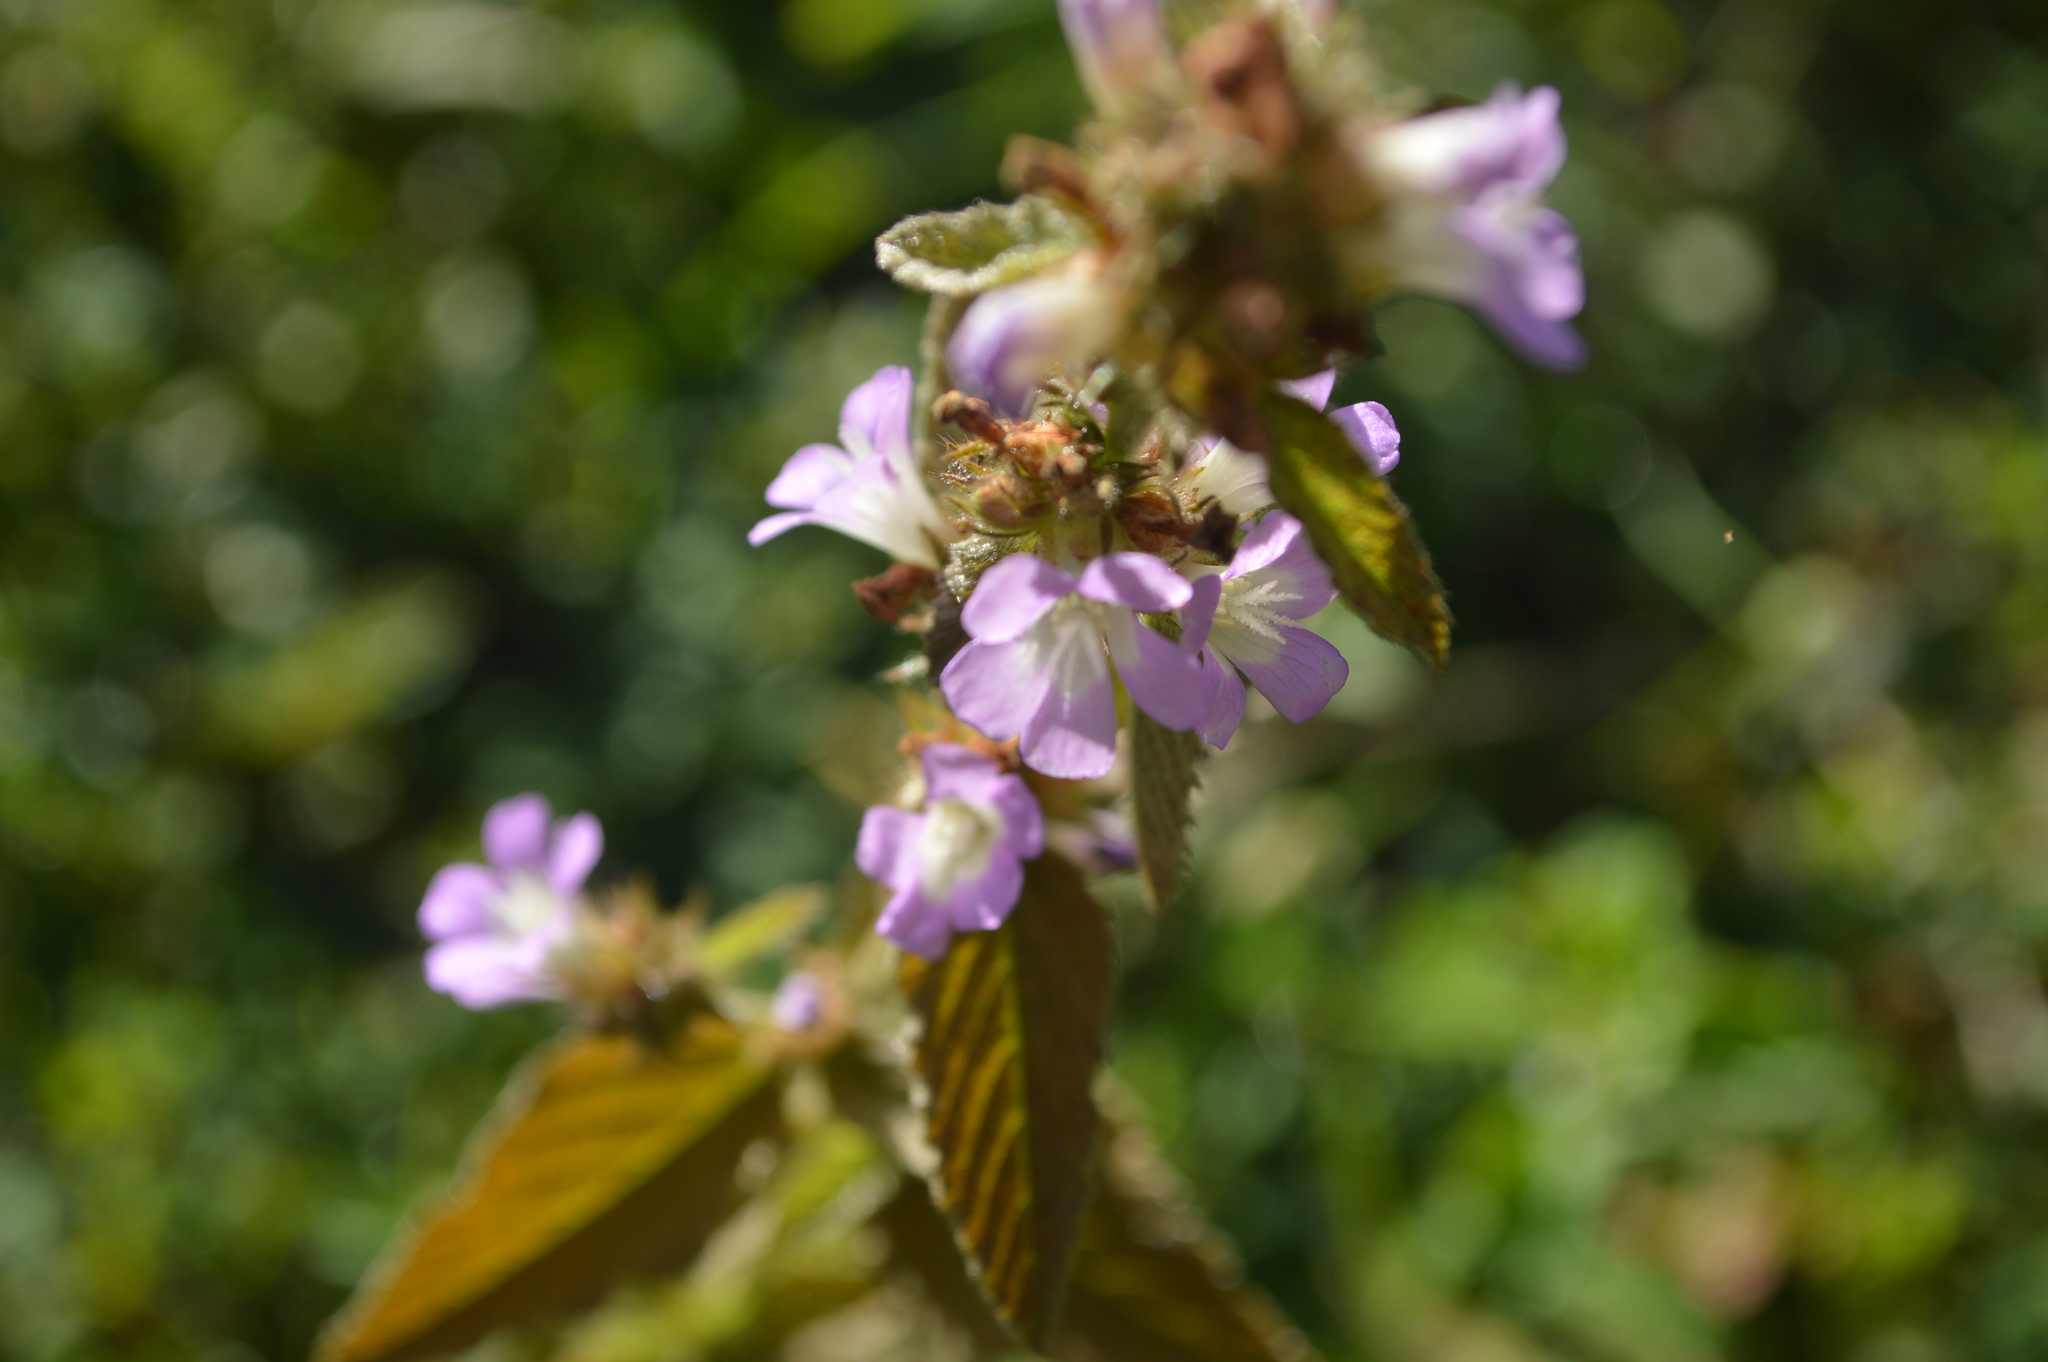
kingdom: Plantae
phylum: Tracheophyta
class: Magnoliopsida
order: Malvales
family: Malvaceae
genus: Melochia
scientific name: Melochia pyramidata
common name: Pyramidflower
